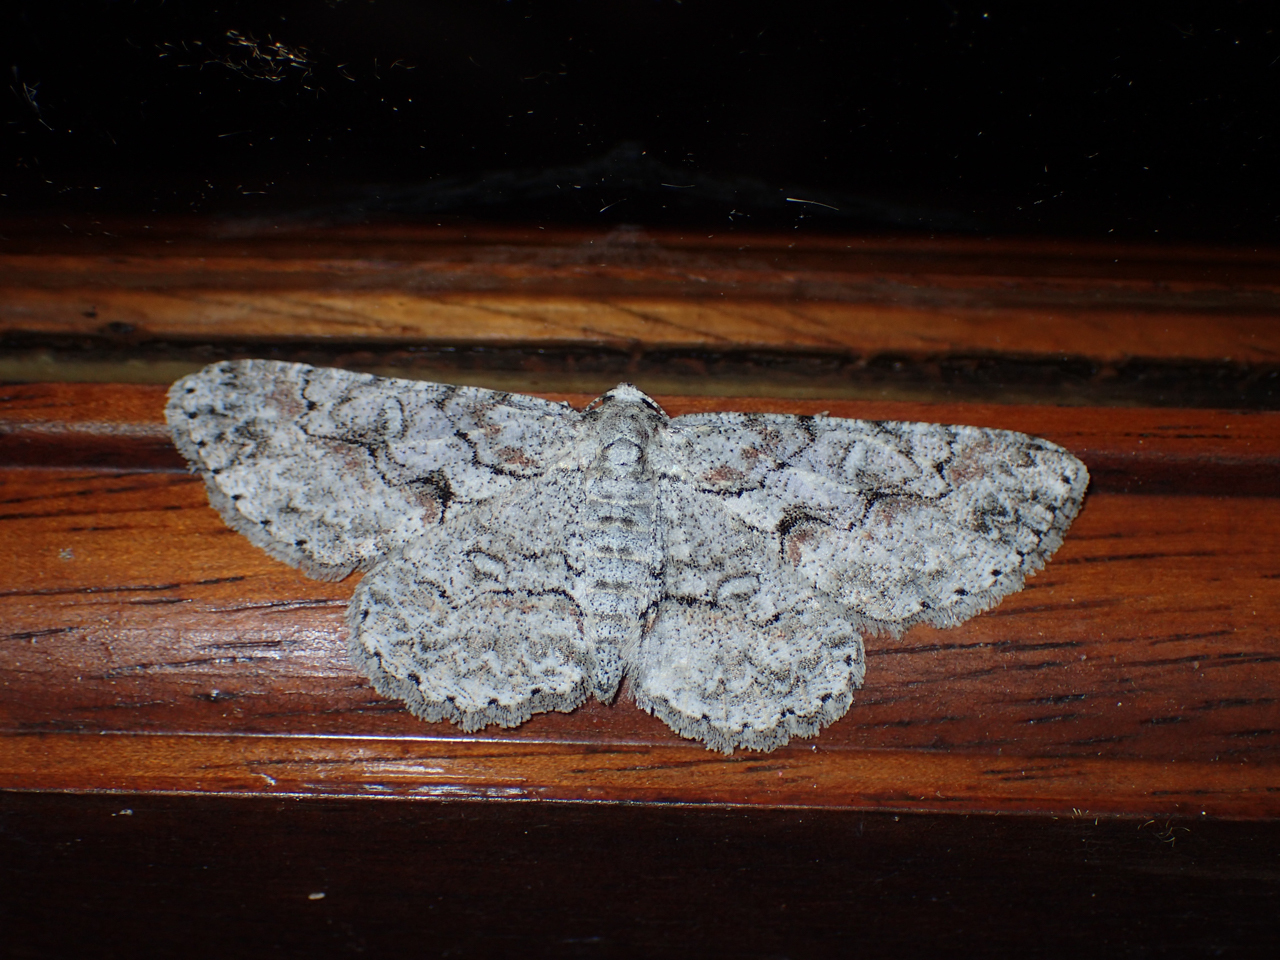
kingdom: Animalia
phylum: Arthropoda
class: Insecta
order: Lepidoptera
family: Geometridae
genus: Iridopsis
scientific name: Iridopsis defectaria
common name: Brown-shaded gray
